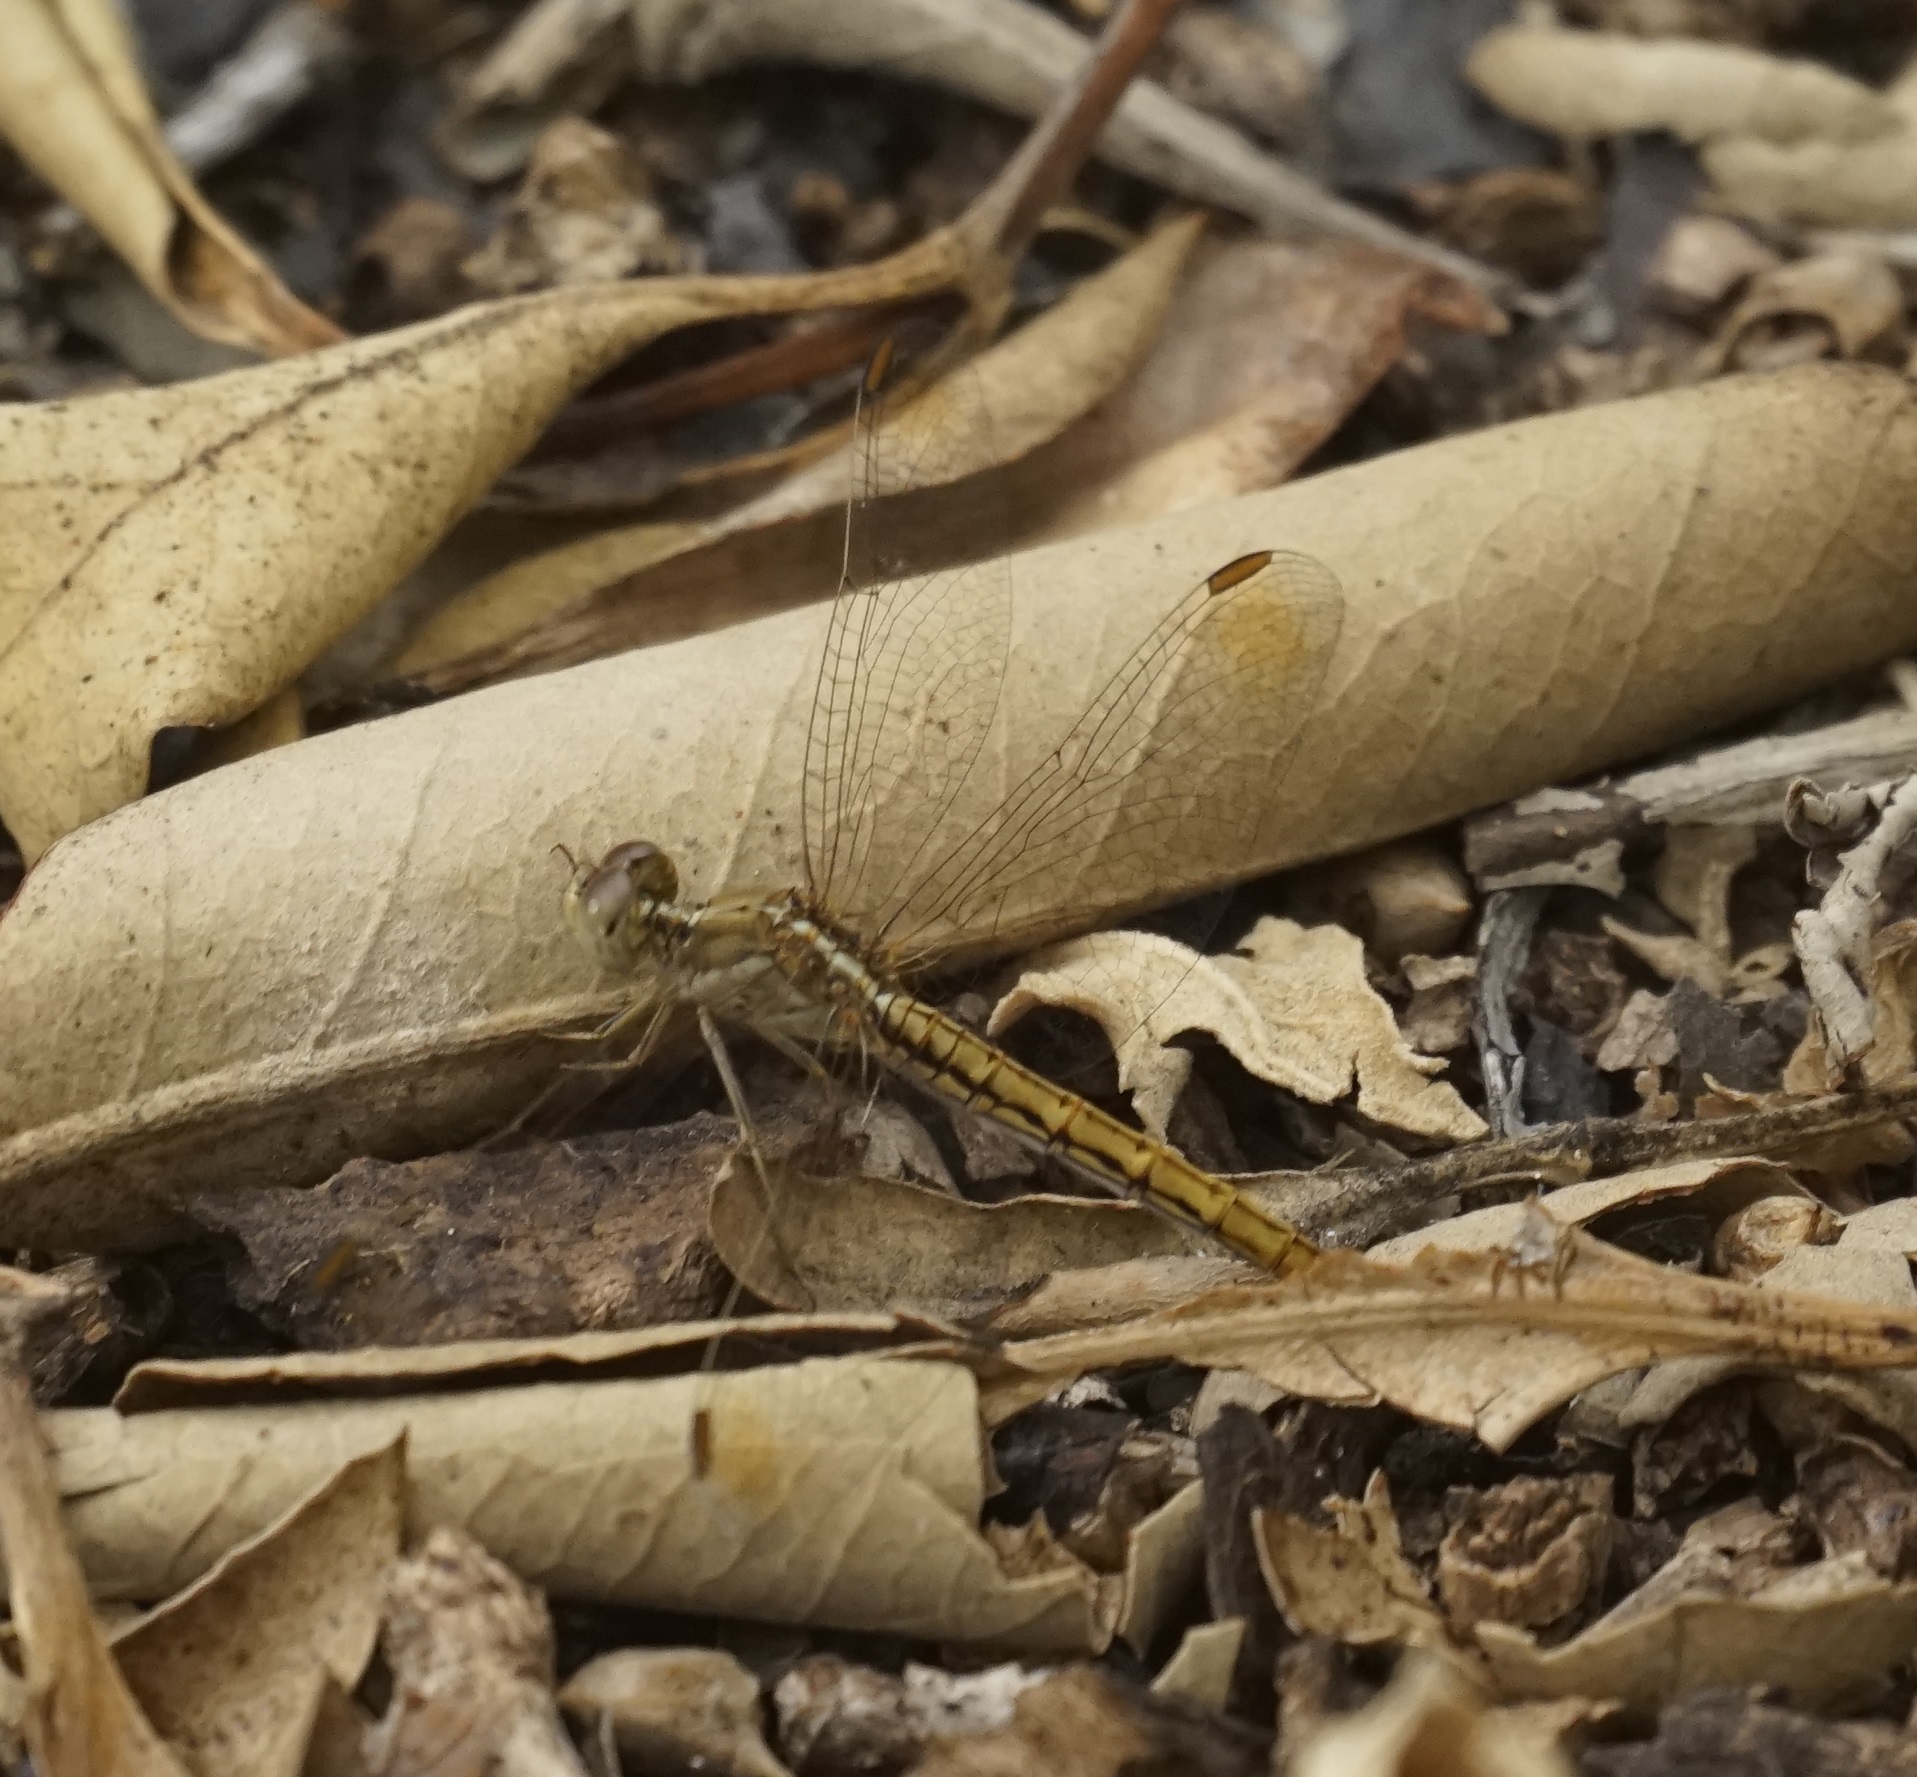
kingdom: Animalia
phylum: Arthropoda
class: Insecta
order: Odonata
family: Libellulidae
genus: Diplacodes
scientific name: Diplacodes haematodes
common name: Scarlet percher
